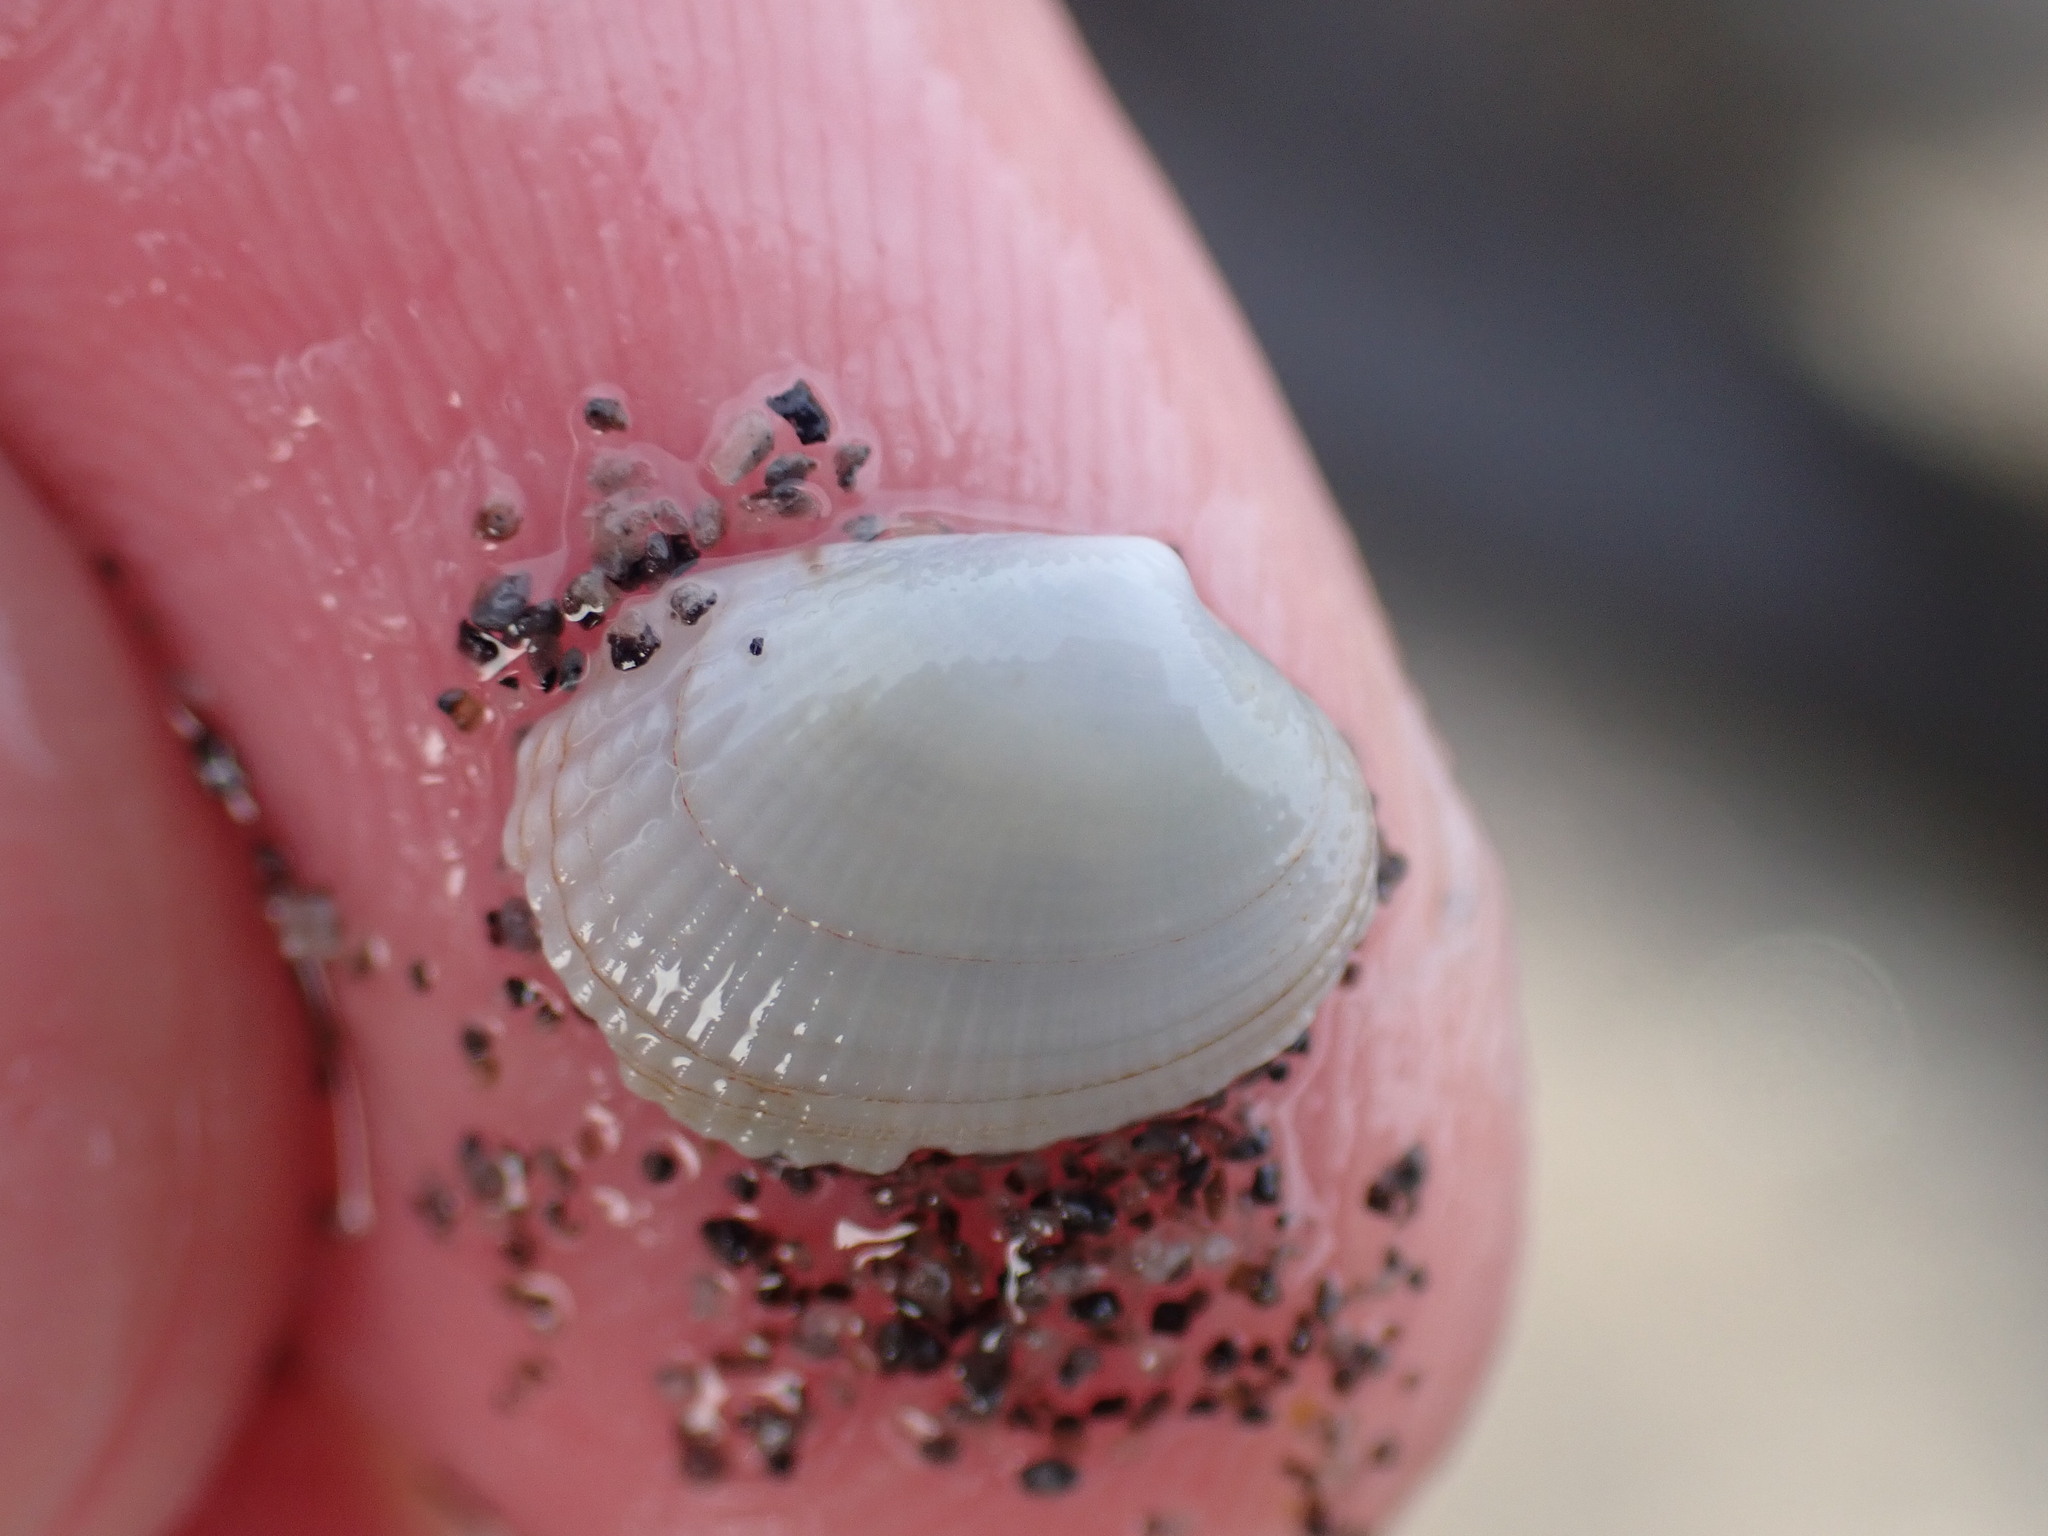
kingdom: Animalia
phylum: Mollusca
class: Bivalvia
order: Venerida
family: Veneridae
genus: Leukoma
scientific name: Leukoma crassicosta
